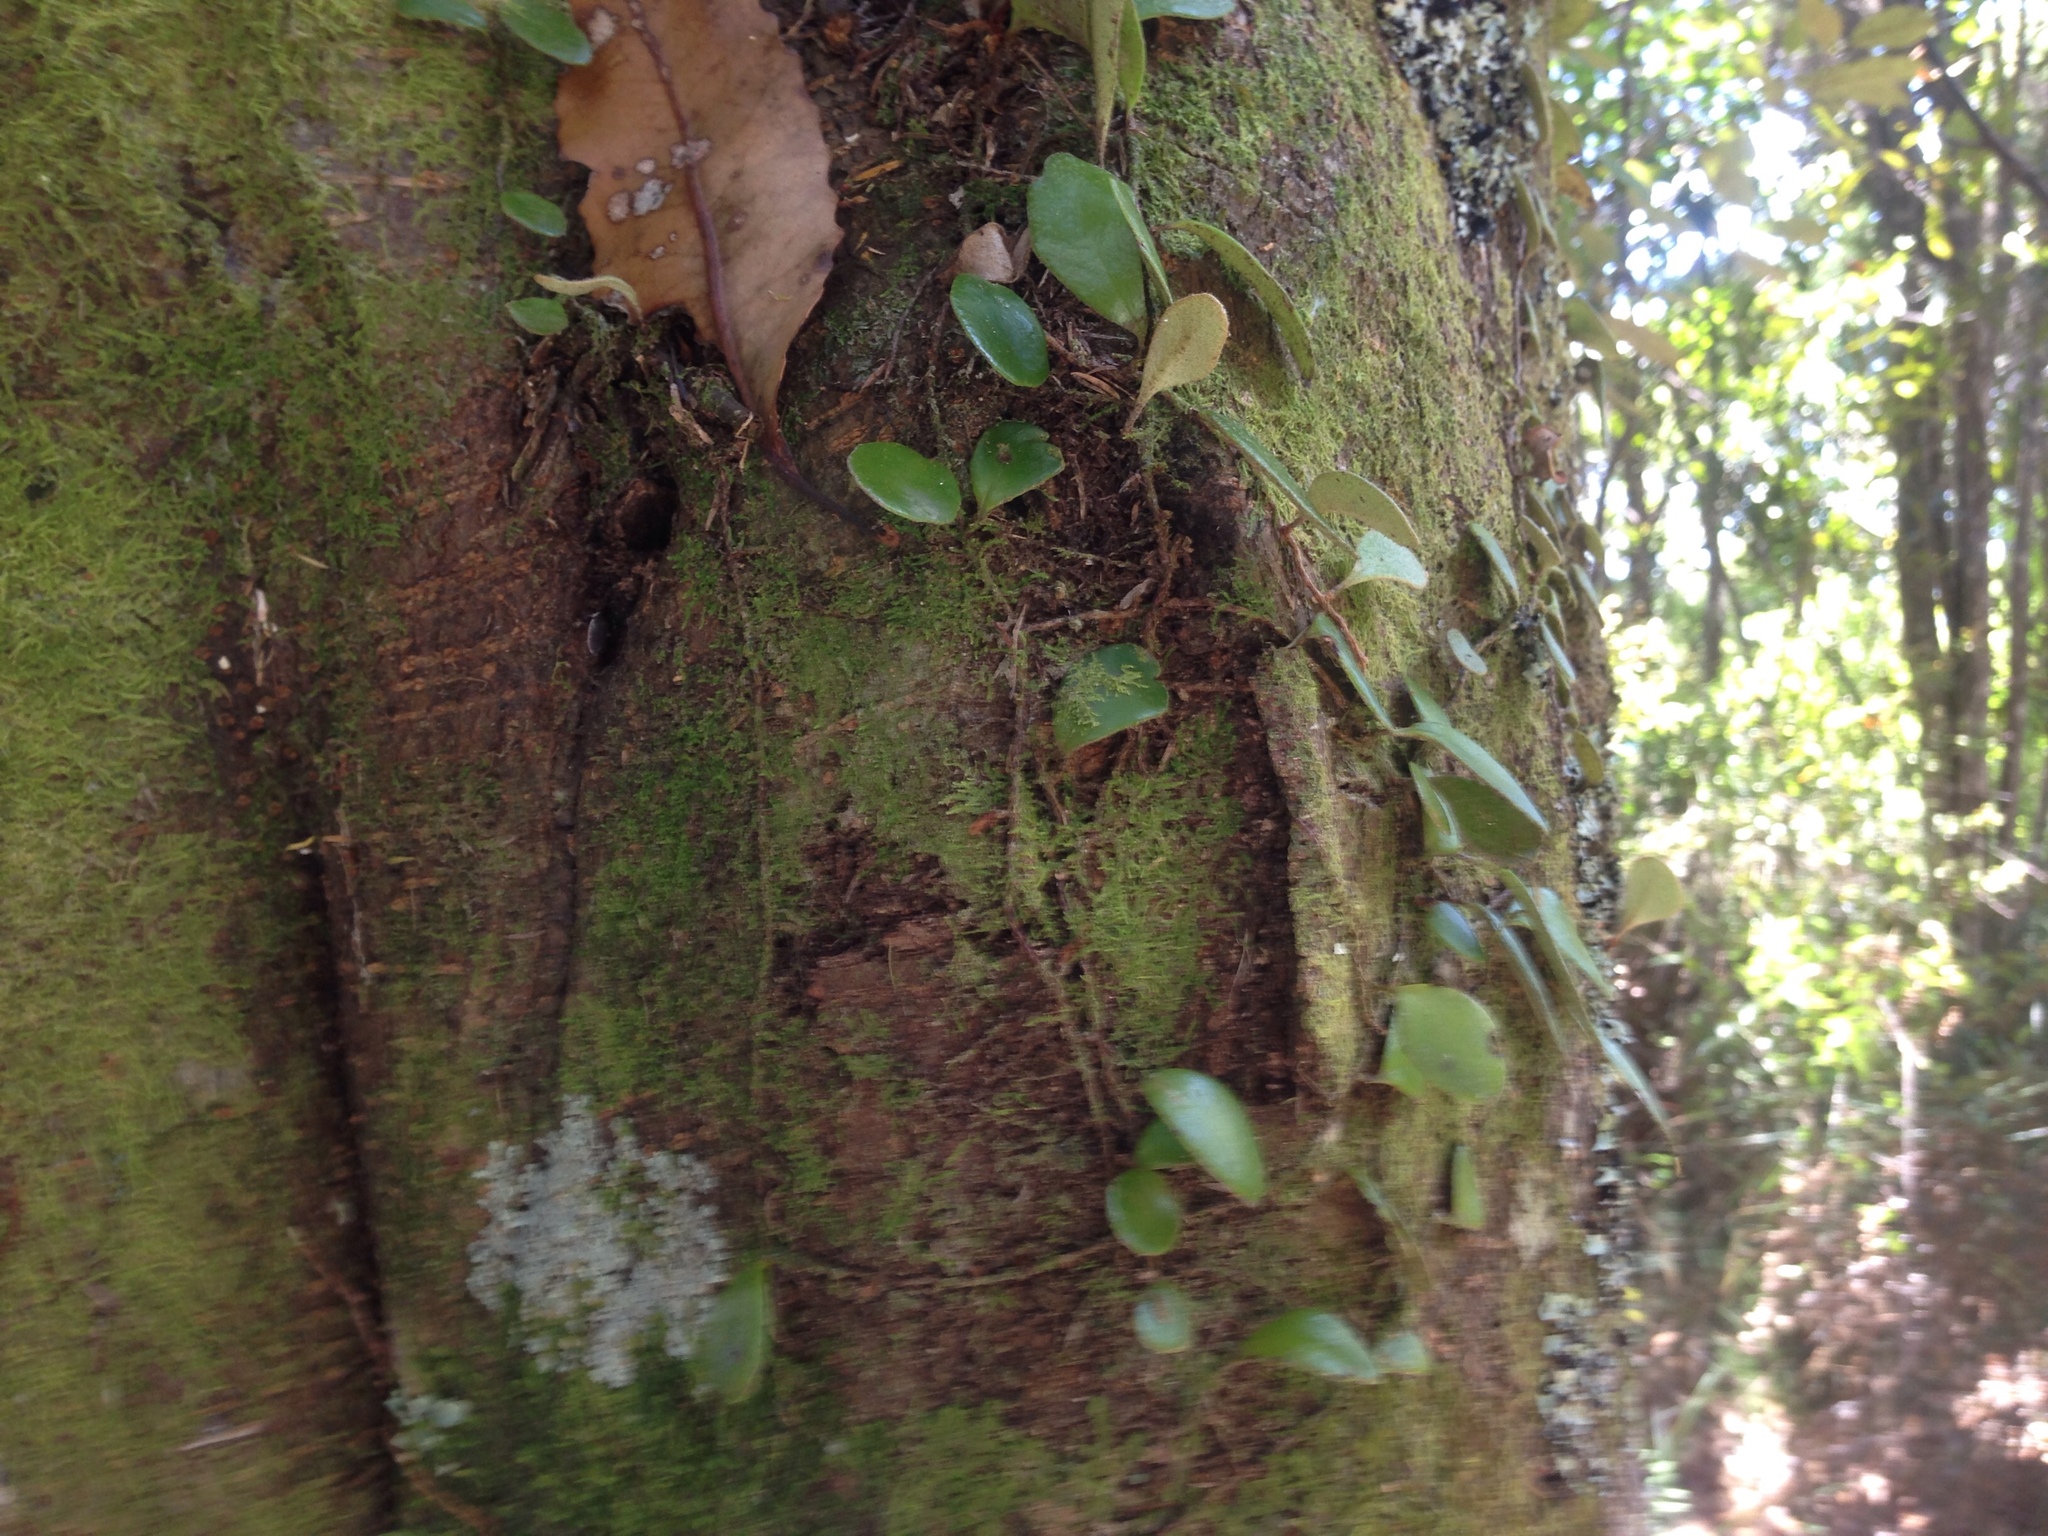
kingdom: Plantae
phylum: Tracheophyta
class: Polypodiopsida
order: Polypodiales
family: Polypodiaceae
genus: Pyrrosia
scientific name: Pyrrosia eleagnifolia
